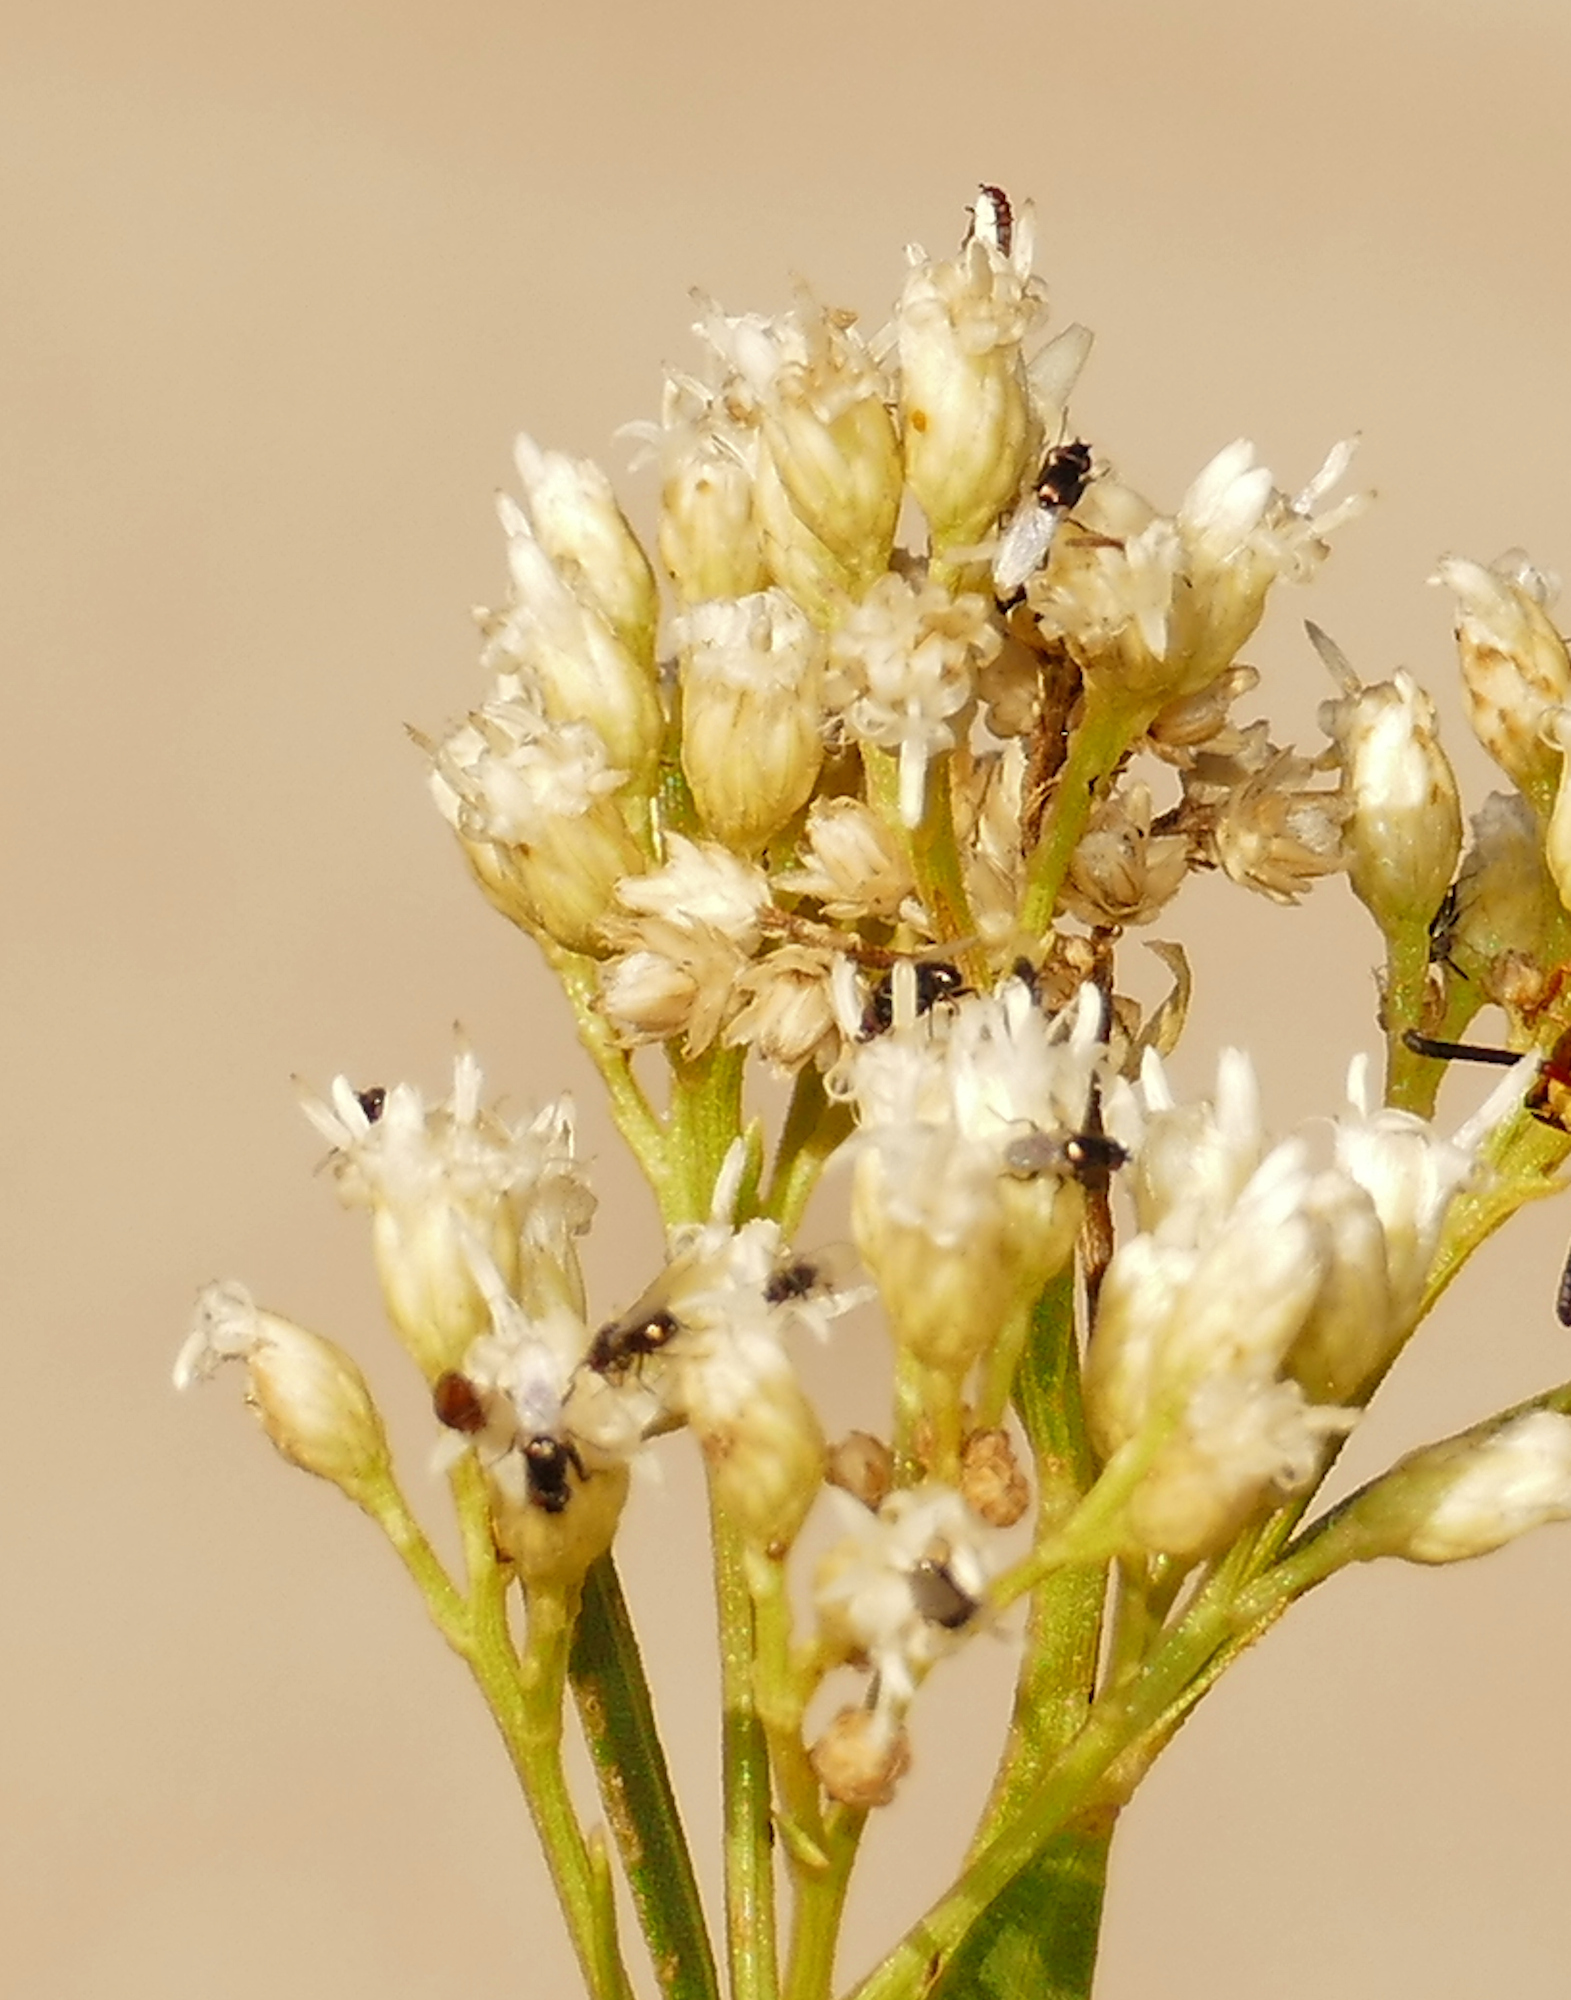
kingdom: Plantae
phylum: Tracheophyta
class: Magnoliopsida
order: Asterales
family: Asteraceae
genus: Baccharis
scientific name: Baccharis salicifolia
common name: Sticky baccharis
